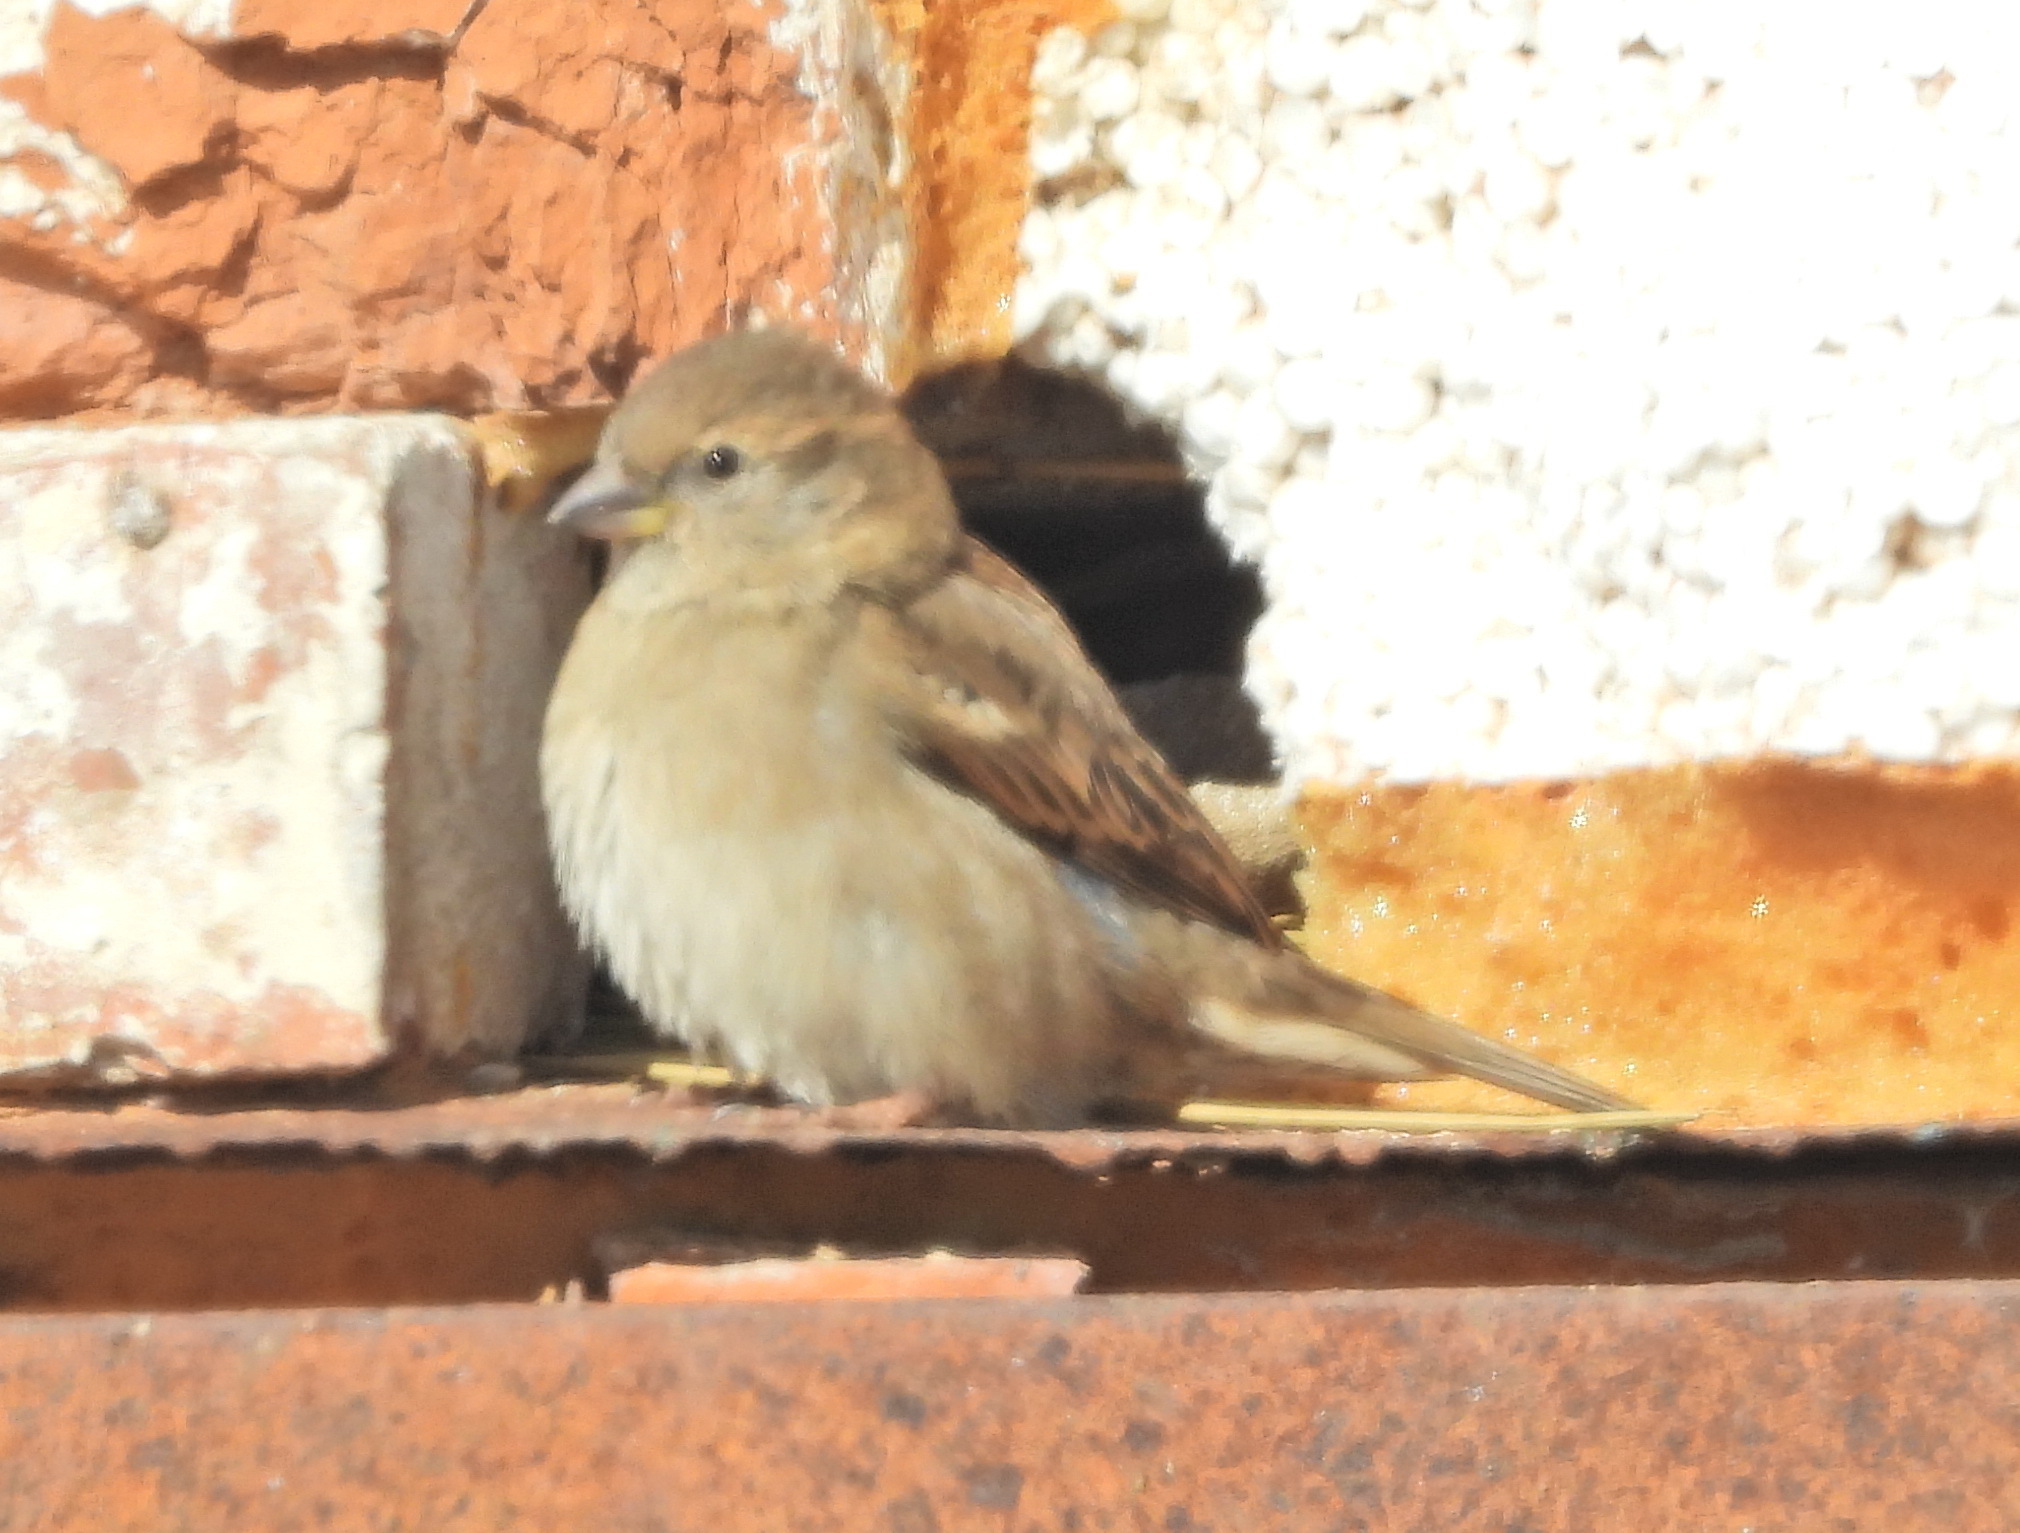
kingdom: Animalia
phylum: Chordata
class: Aves
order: Passeriformes
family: Passeridae
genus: Passer
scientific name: Passer domesticus
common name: House sparrow
